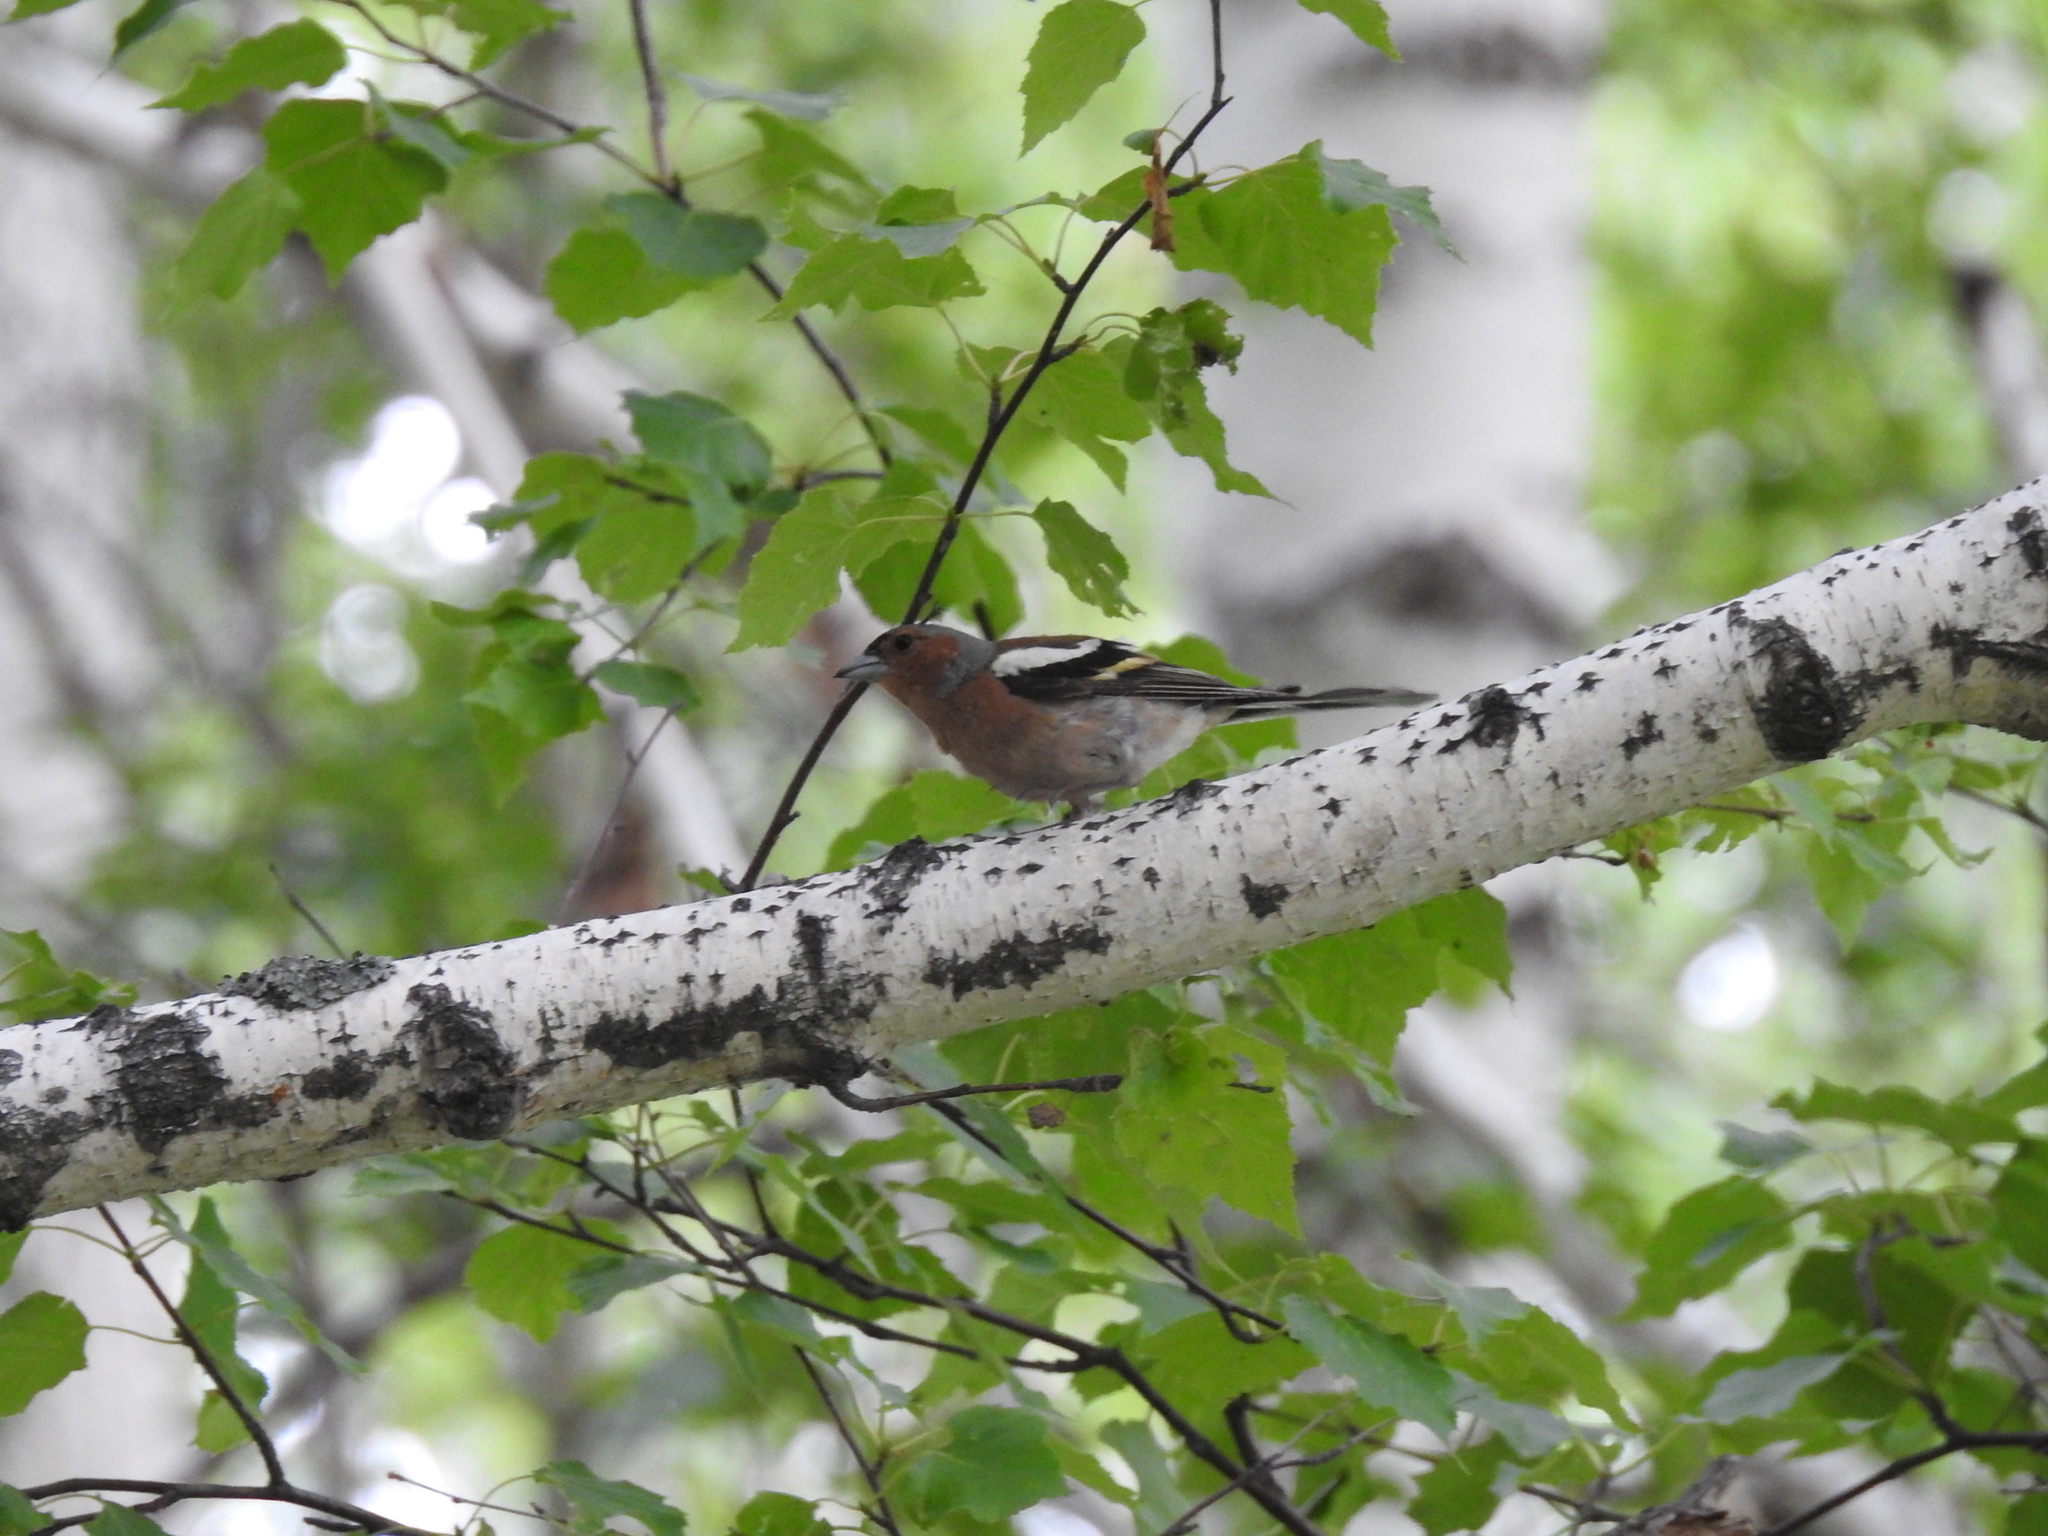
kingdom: Animalia
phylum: Chordata
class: Aves
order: Passeriformes
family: Fringillidae
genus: Fringilla
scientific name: Fringilla coelebs
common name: Common chaffinch
